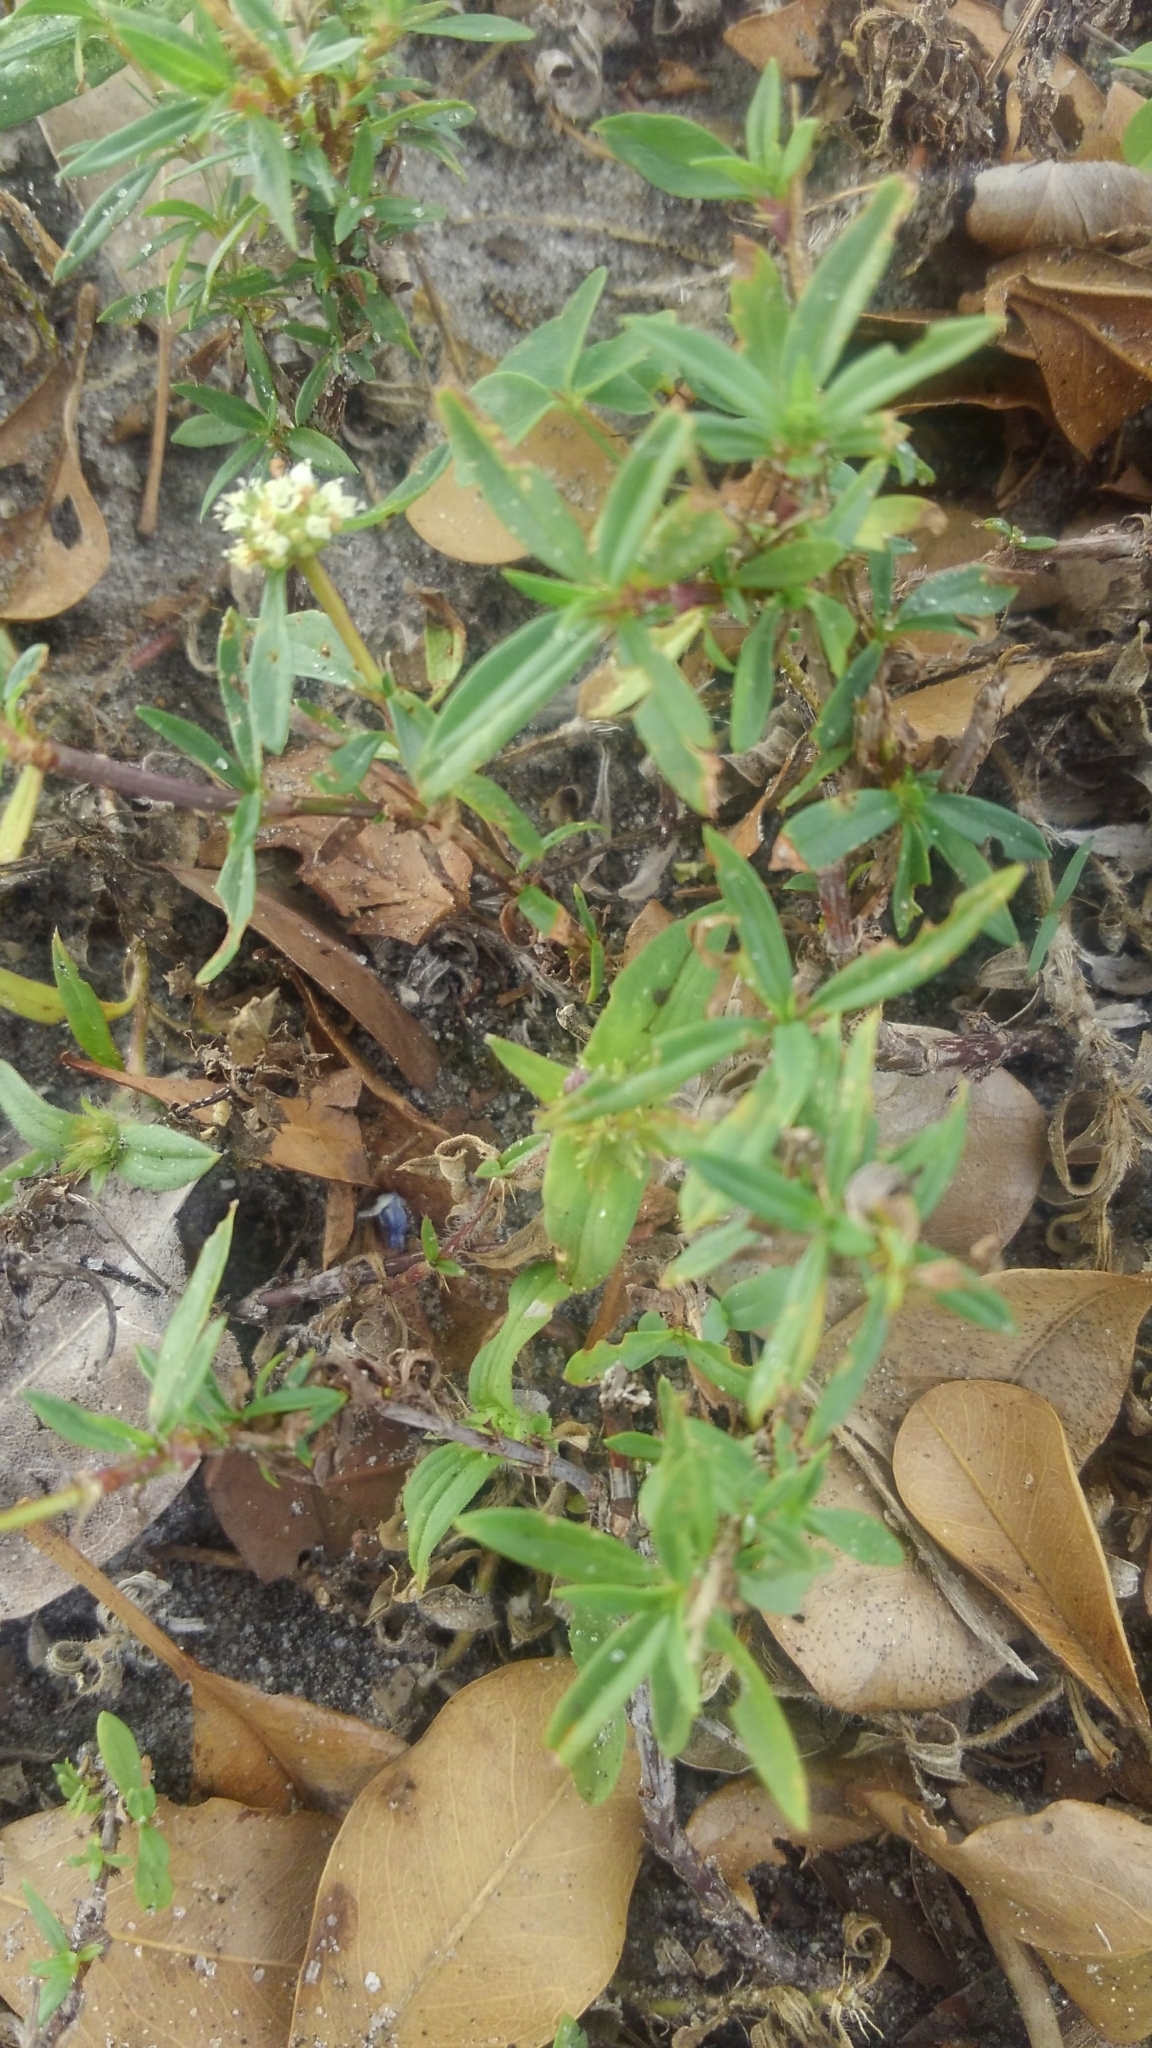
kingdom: Plantae
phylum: Tracheophyta
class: Magnoliopsida
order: Gentianales
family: Rubiaceae
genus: Spermacoce
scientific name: Spermacoce verticillata
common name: Shrubby false buttonweed
